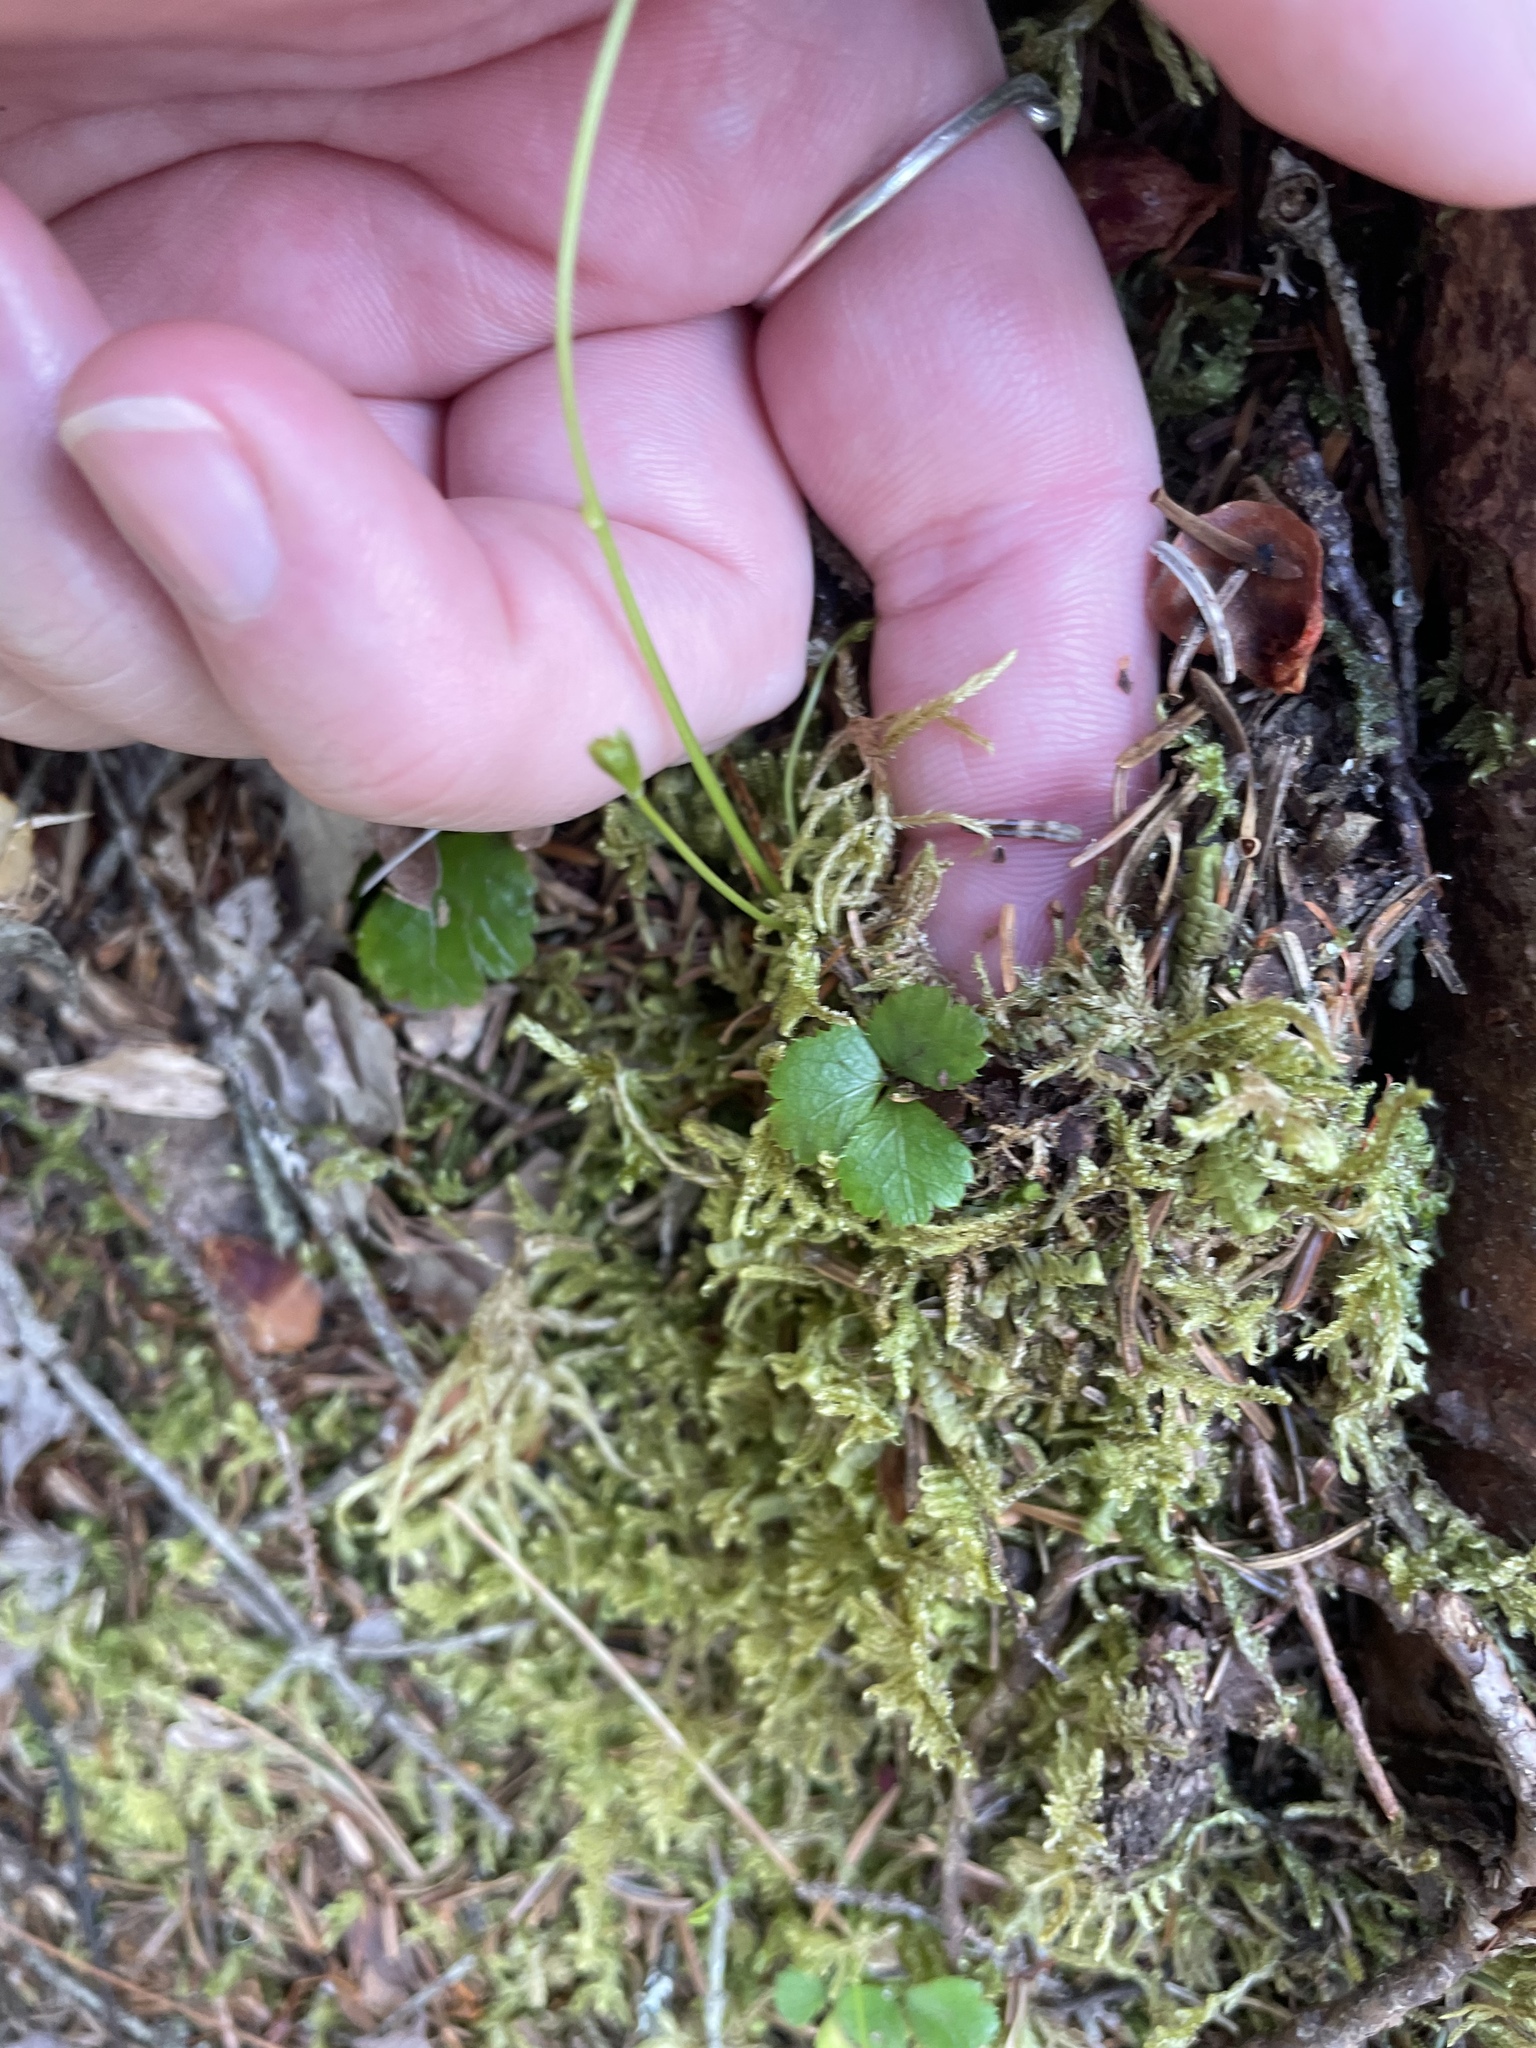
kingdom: Plantae
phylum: Tracheophyta
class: Magnoliopsida
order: Ranunculales
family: Ranunculaceae
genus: Coptis
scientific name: Coptis trifolia
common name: Canker-root
